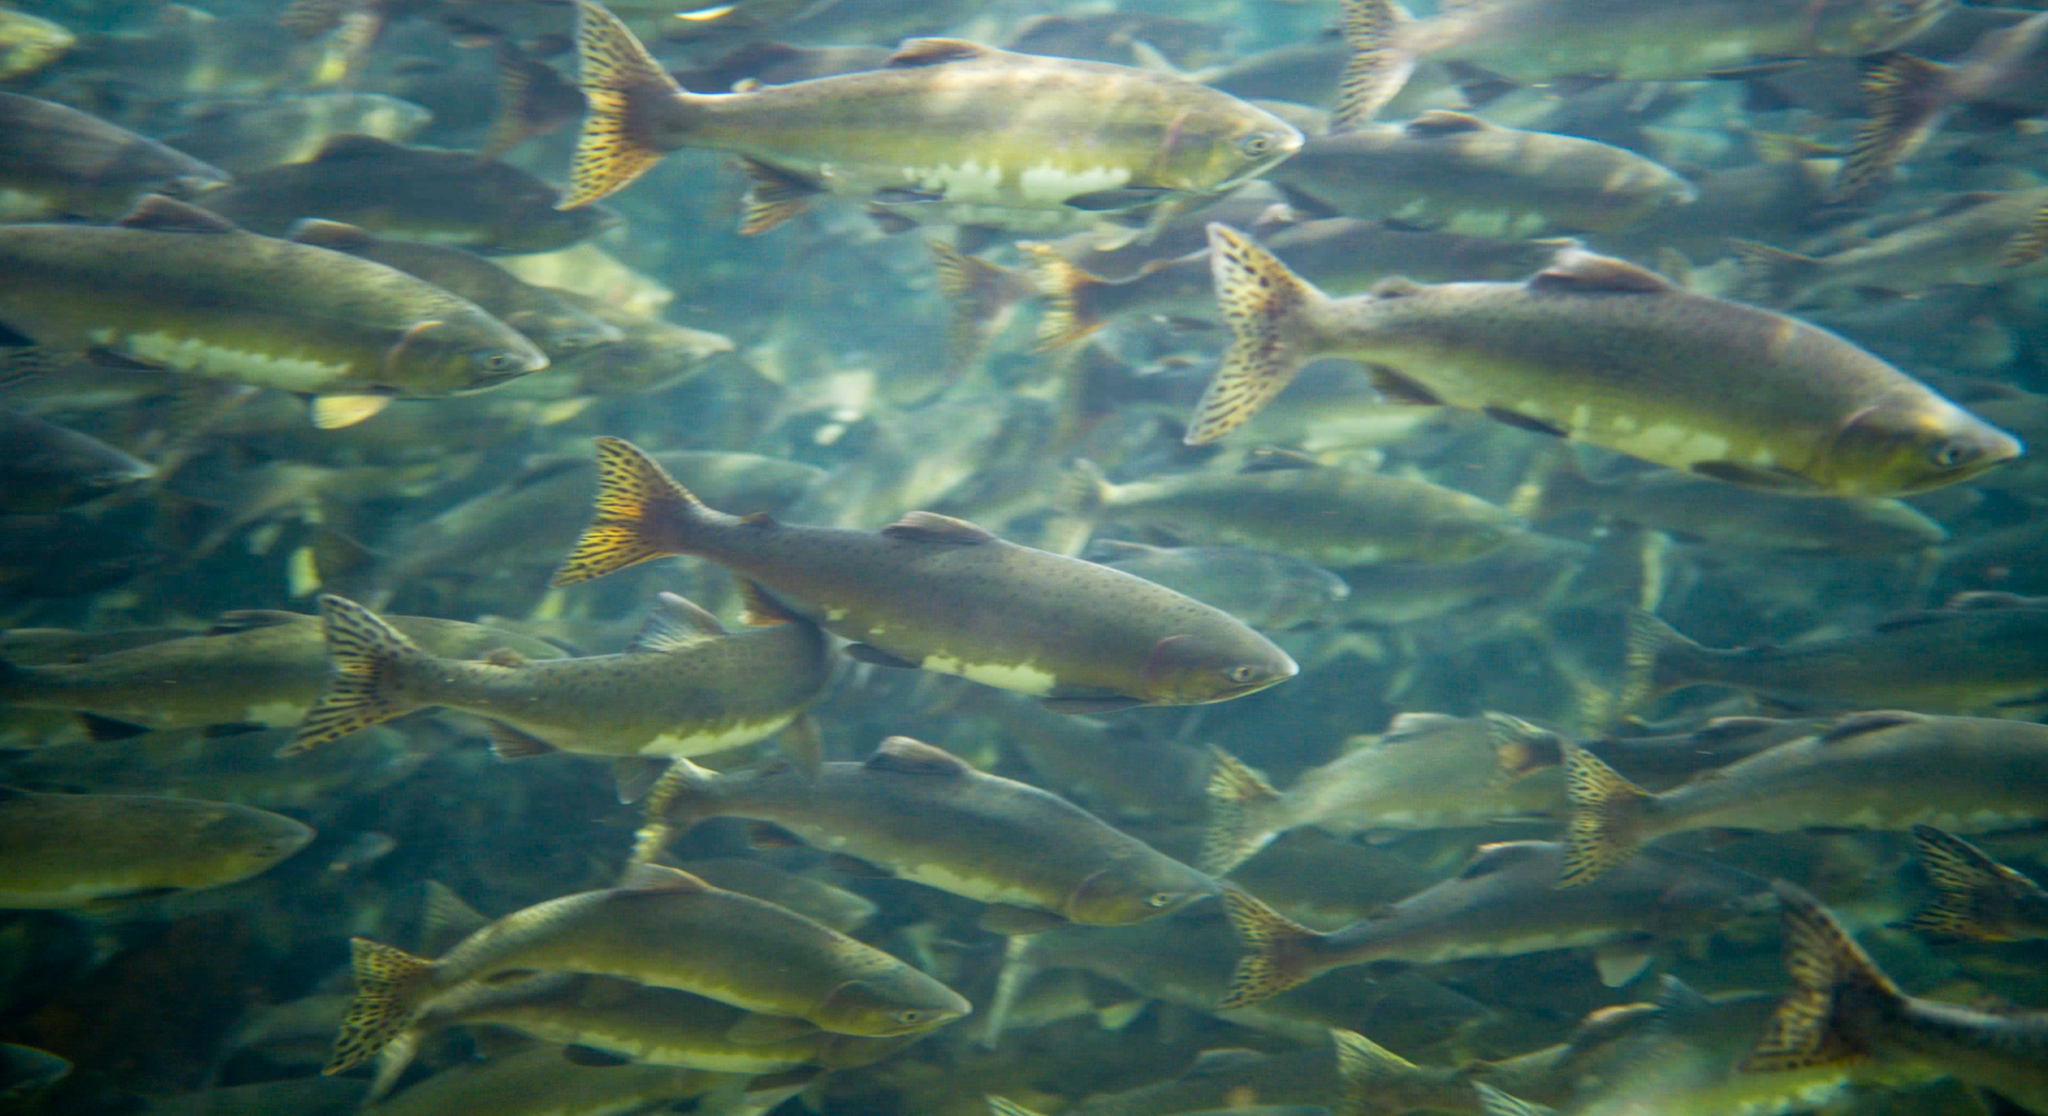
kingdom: Animalia
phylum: Chordata
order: Salmoniformes
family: Salmonidae
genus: Oncorhynchus
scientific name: Oncorhynchus gorbuscha
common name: Humpback salmon
